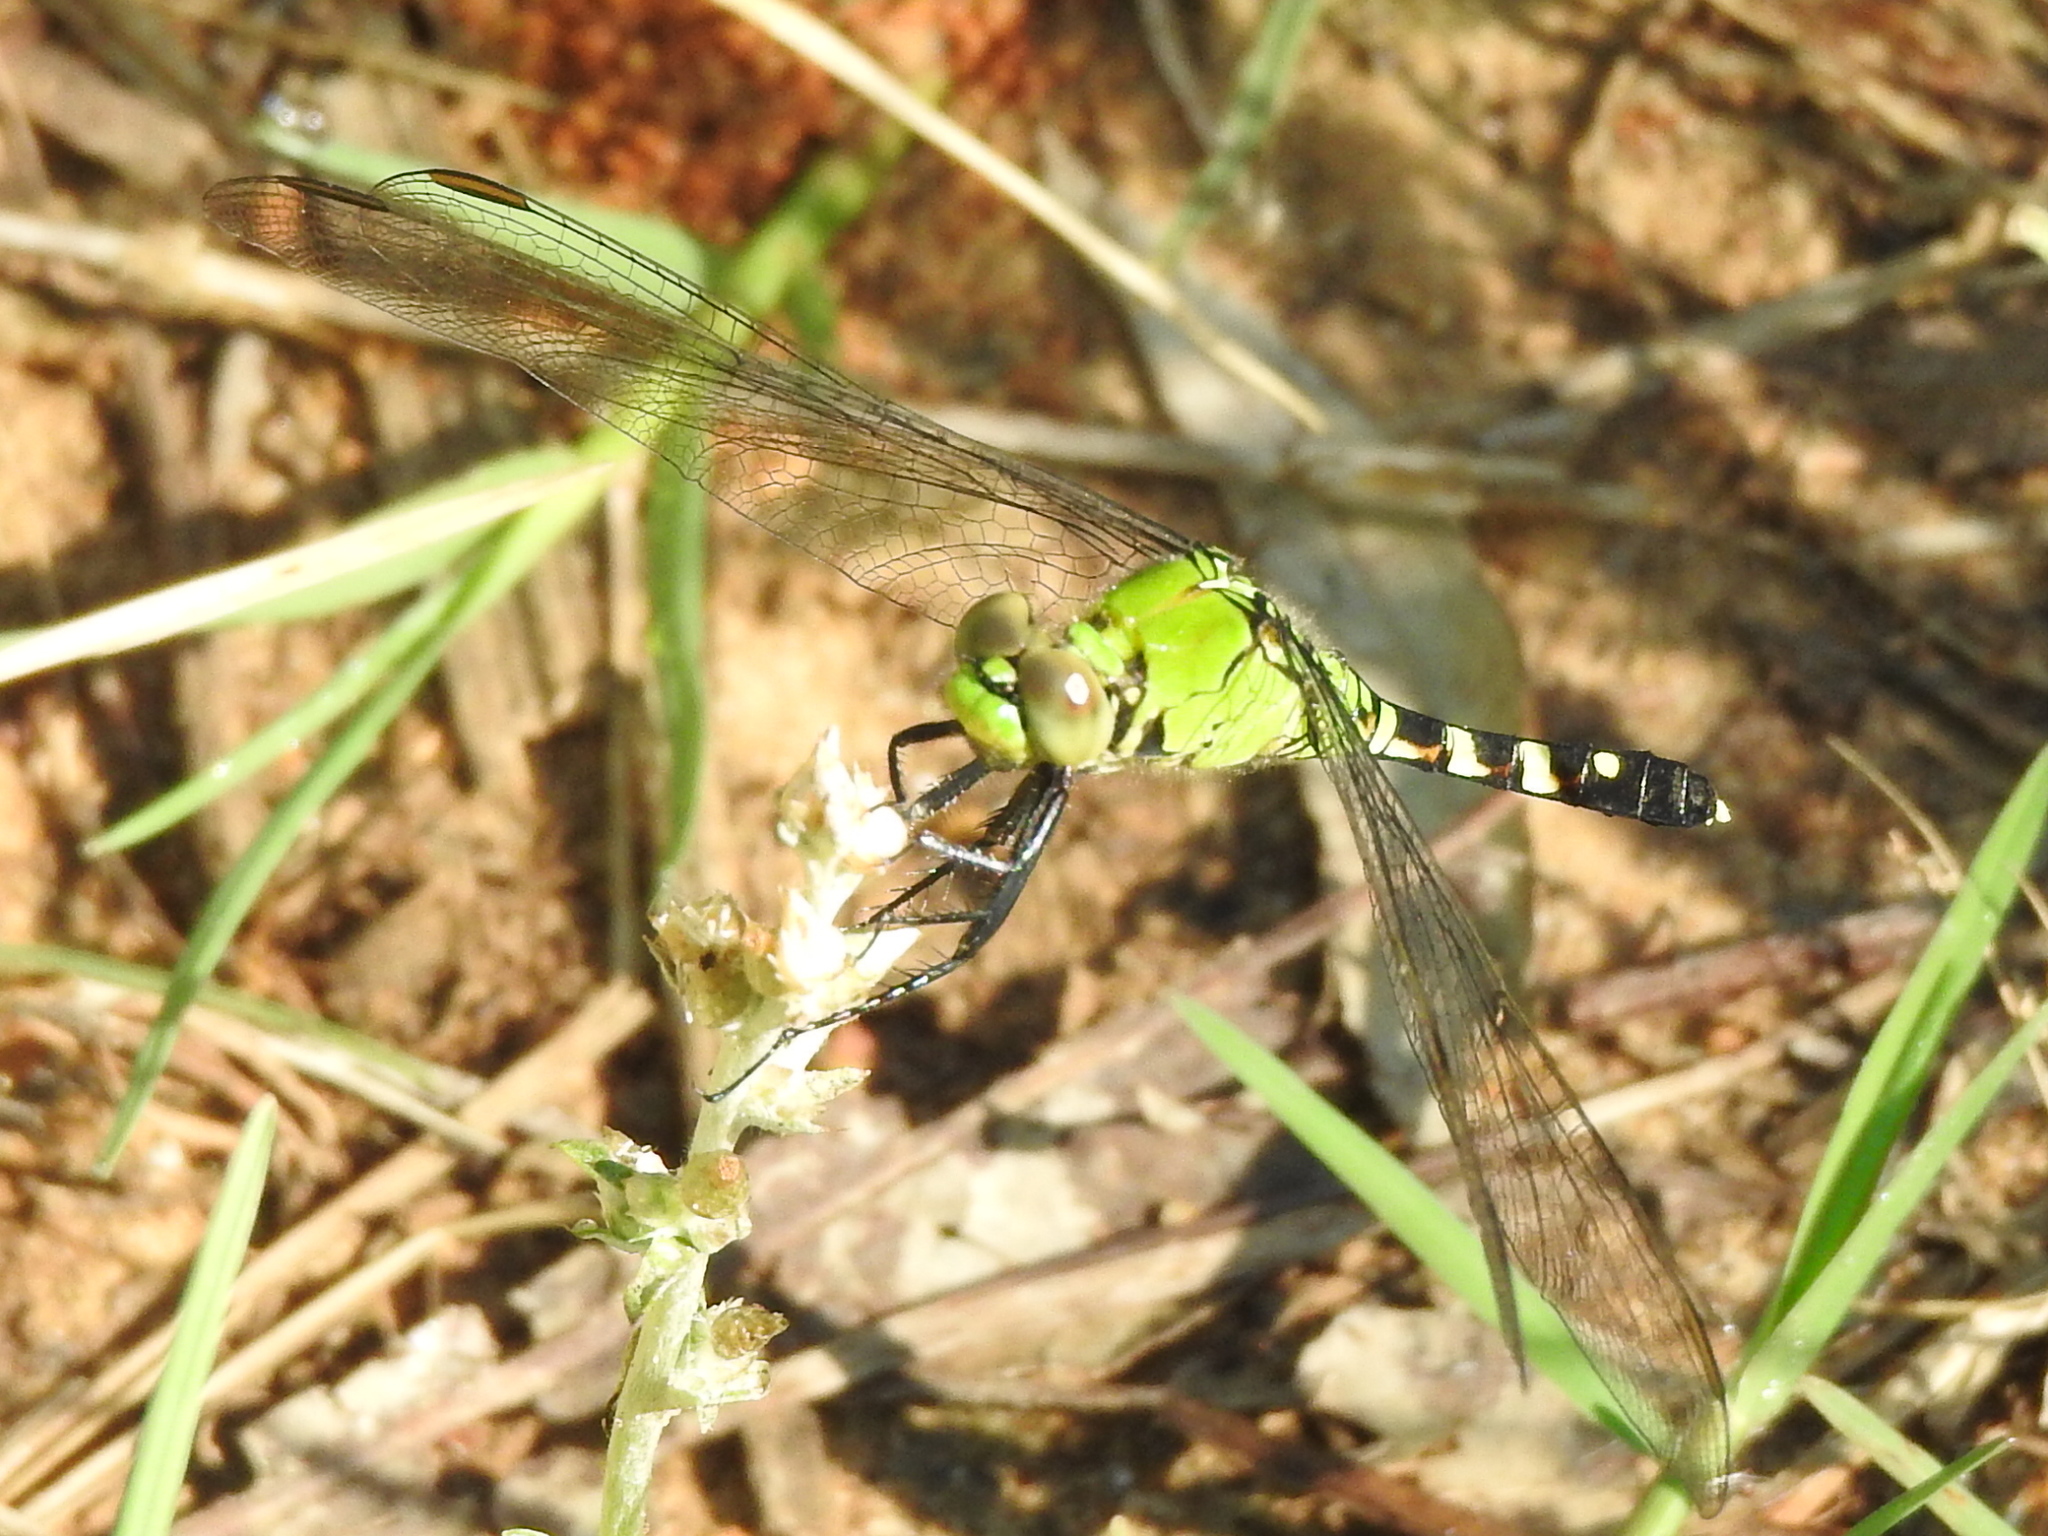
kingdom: Animalia
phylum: Arthropoda
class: Insecta
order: Odonata
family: Libellulidae
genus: Erythemis
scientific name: Erythemis simplicicollis
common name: Eastern pondhawk
